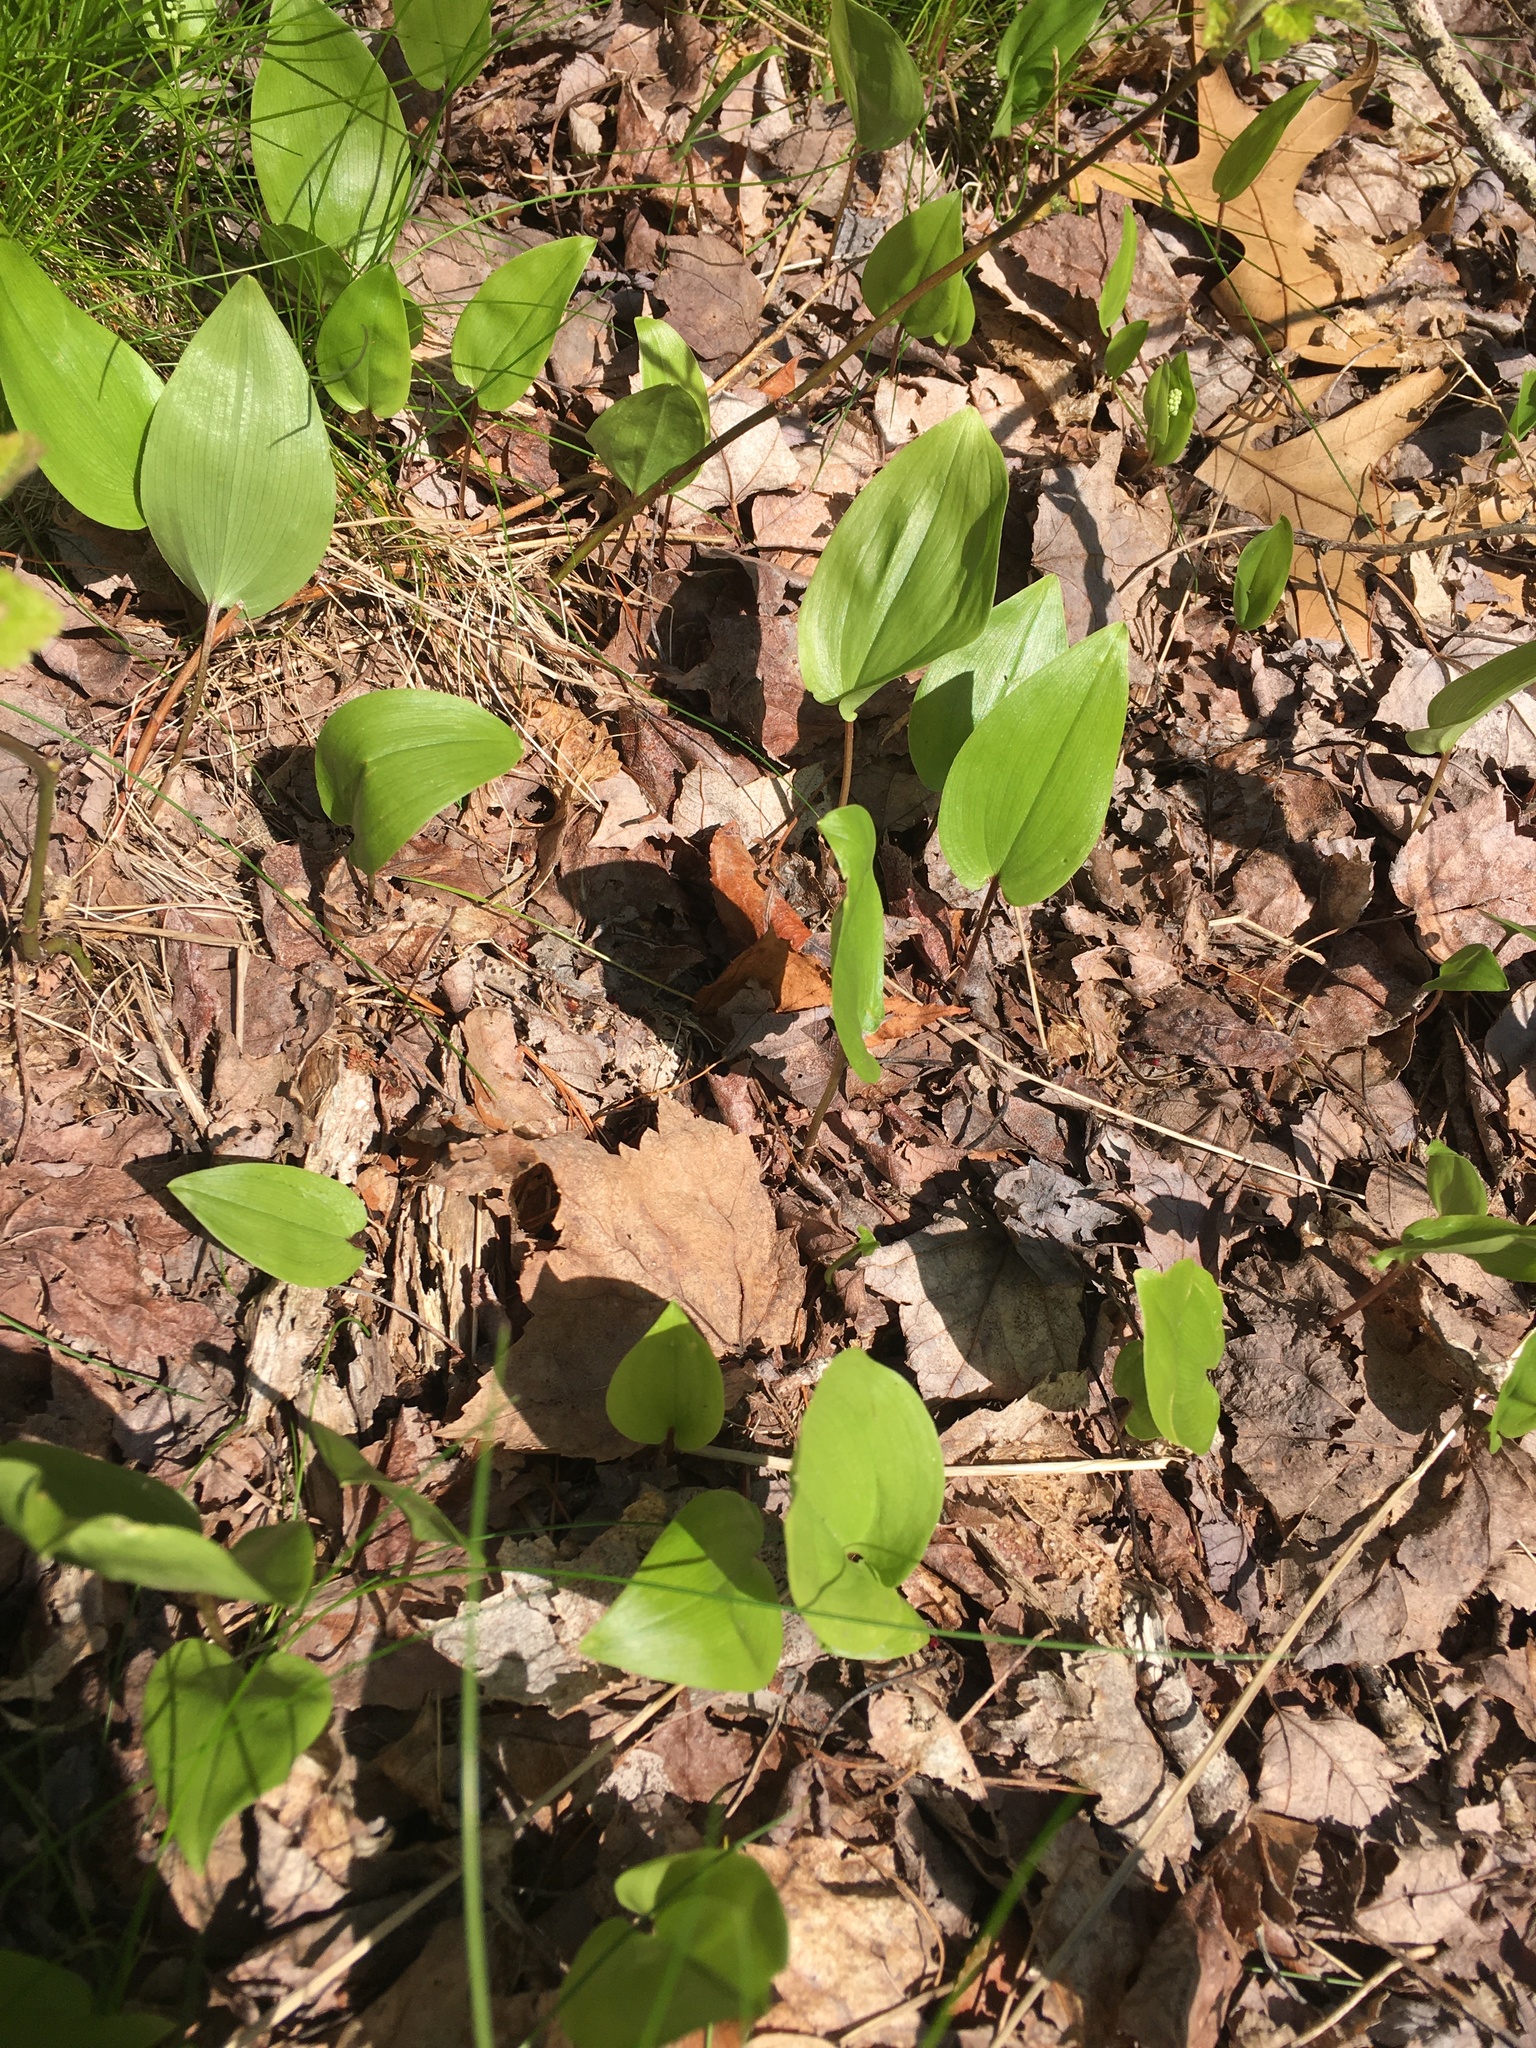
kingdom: Plantae
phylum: Tracheophyta
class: Liliopsida
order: Asparagales
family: Asparagaceae
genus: Maianthemum
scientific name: Maianthemum canadense
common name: False lily-of-the-valley
